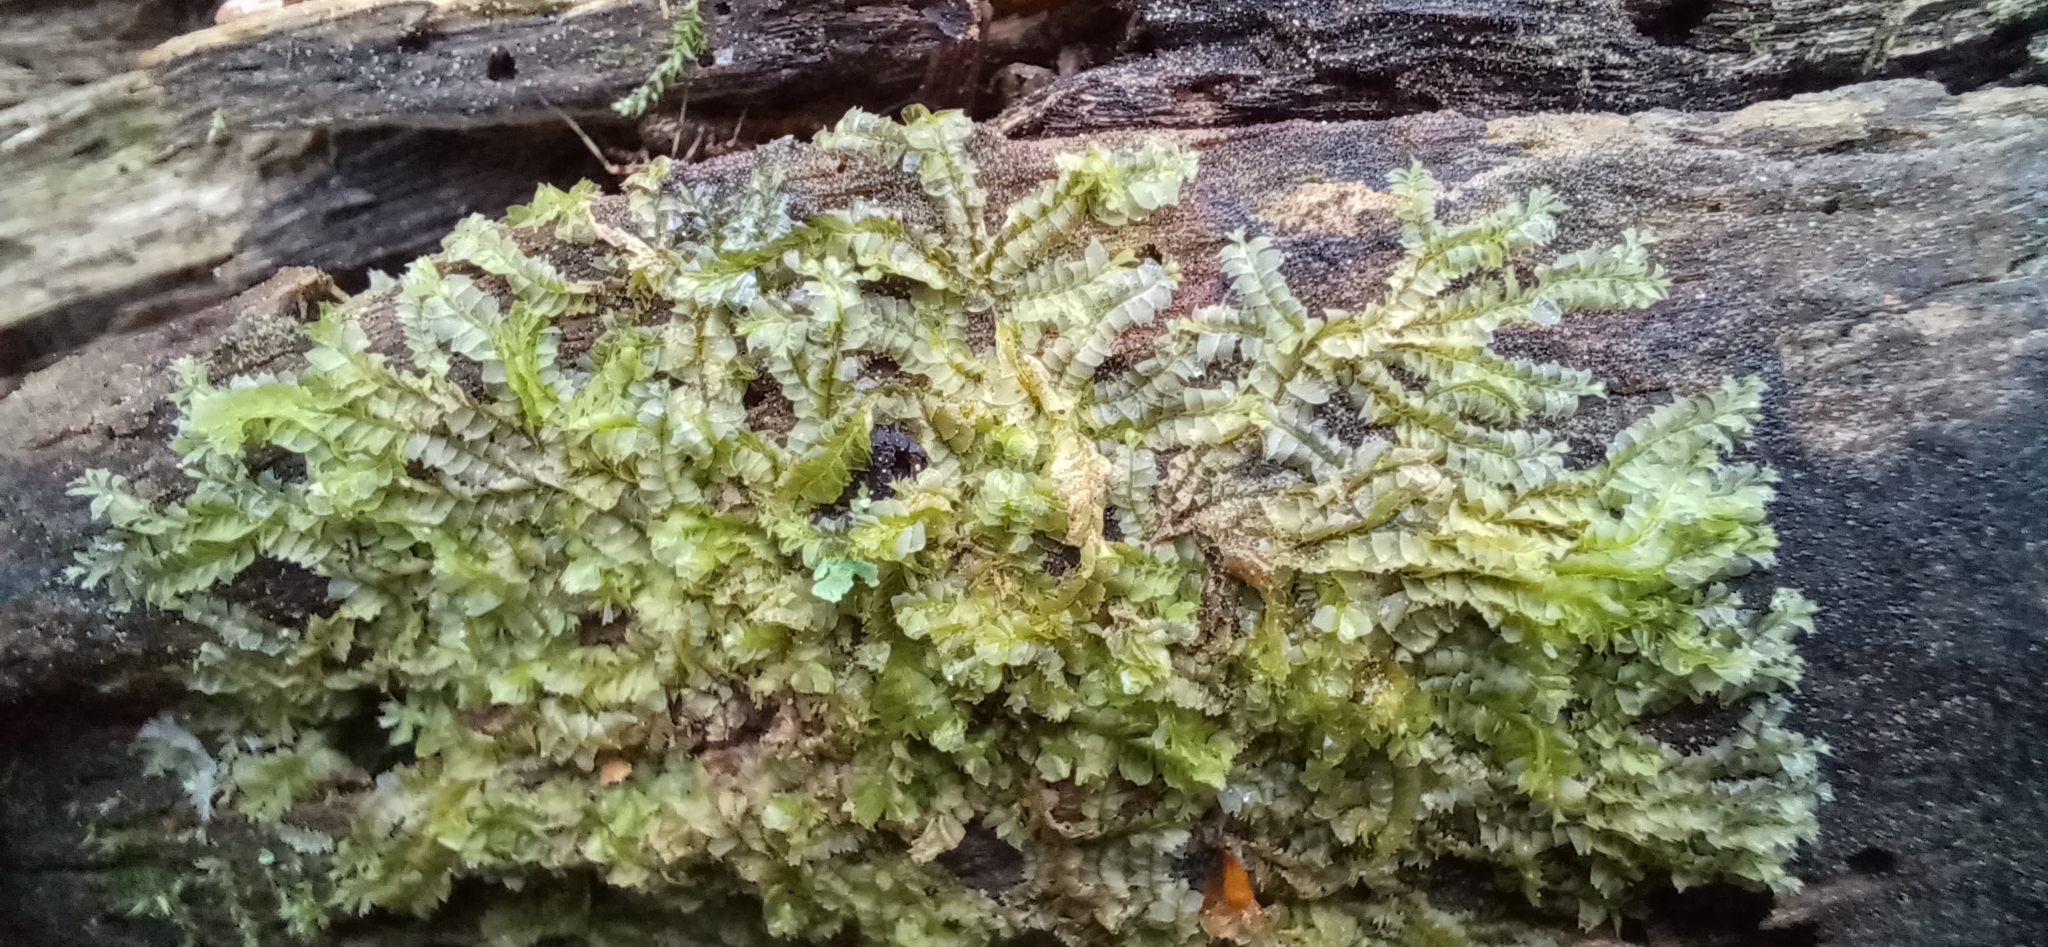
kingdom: Plantae
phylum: Marchantiophyta
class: Jungermanniopsida
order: Jungermanniales
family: Lophocoleaceae
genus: Lophocolea
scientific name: Lophocolea heterophylla
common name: Variable-leaved crestwort
